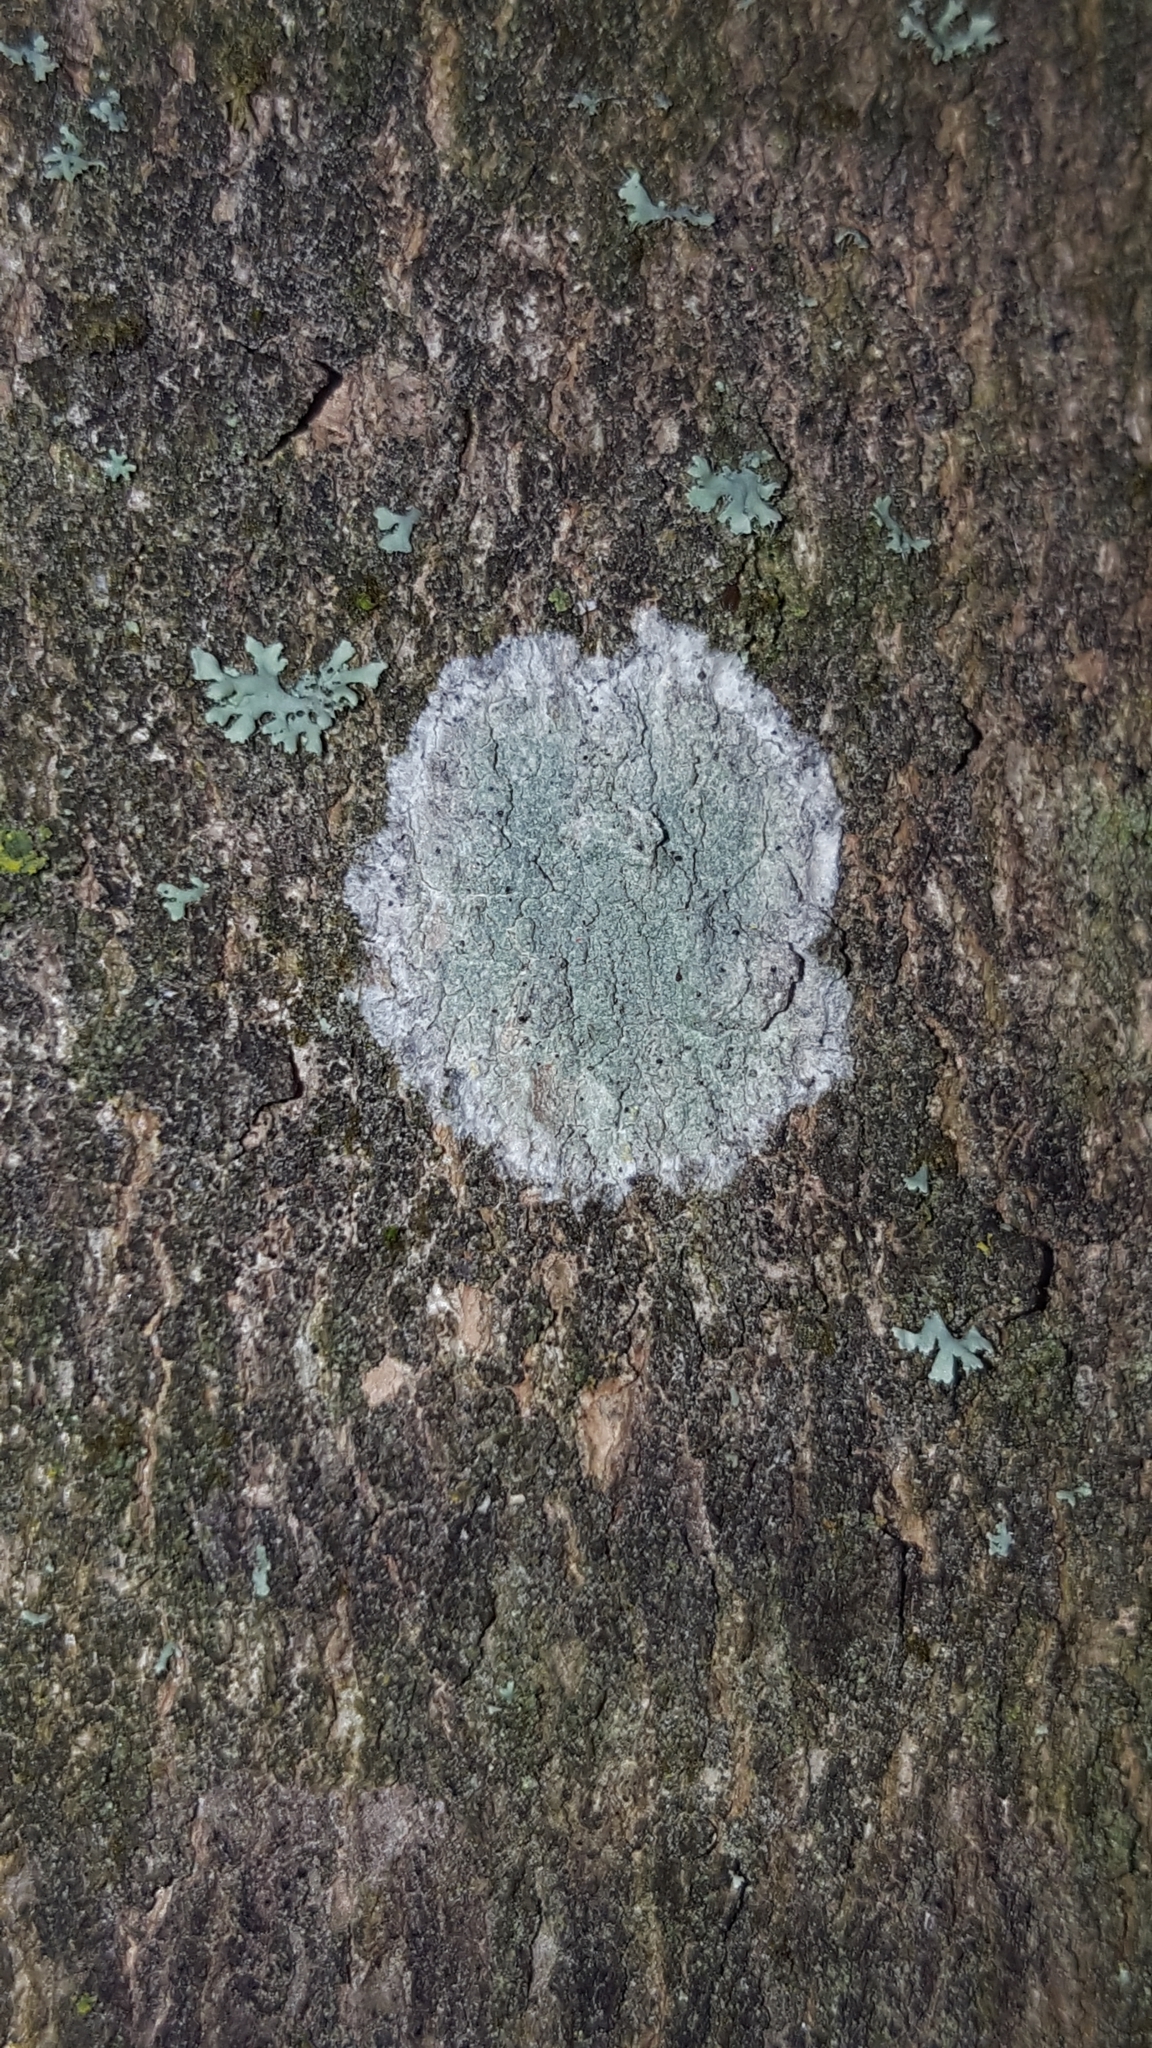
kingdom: Fungi
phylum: Ascomycota
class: Lecanoromycetes
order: Ostropales
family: Phlyctidaceae
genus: Phlyctis
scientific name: Phlyctis argena
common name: Whitewash lichen
